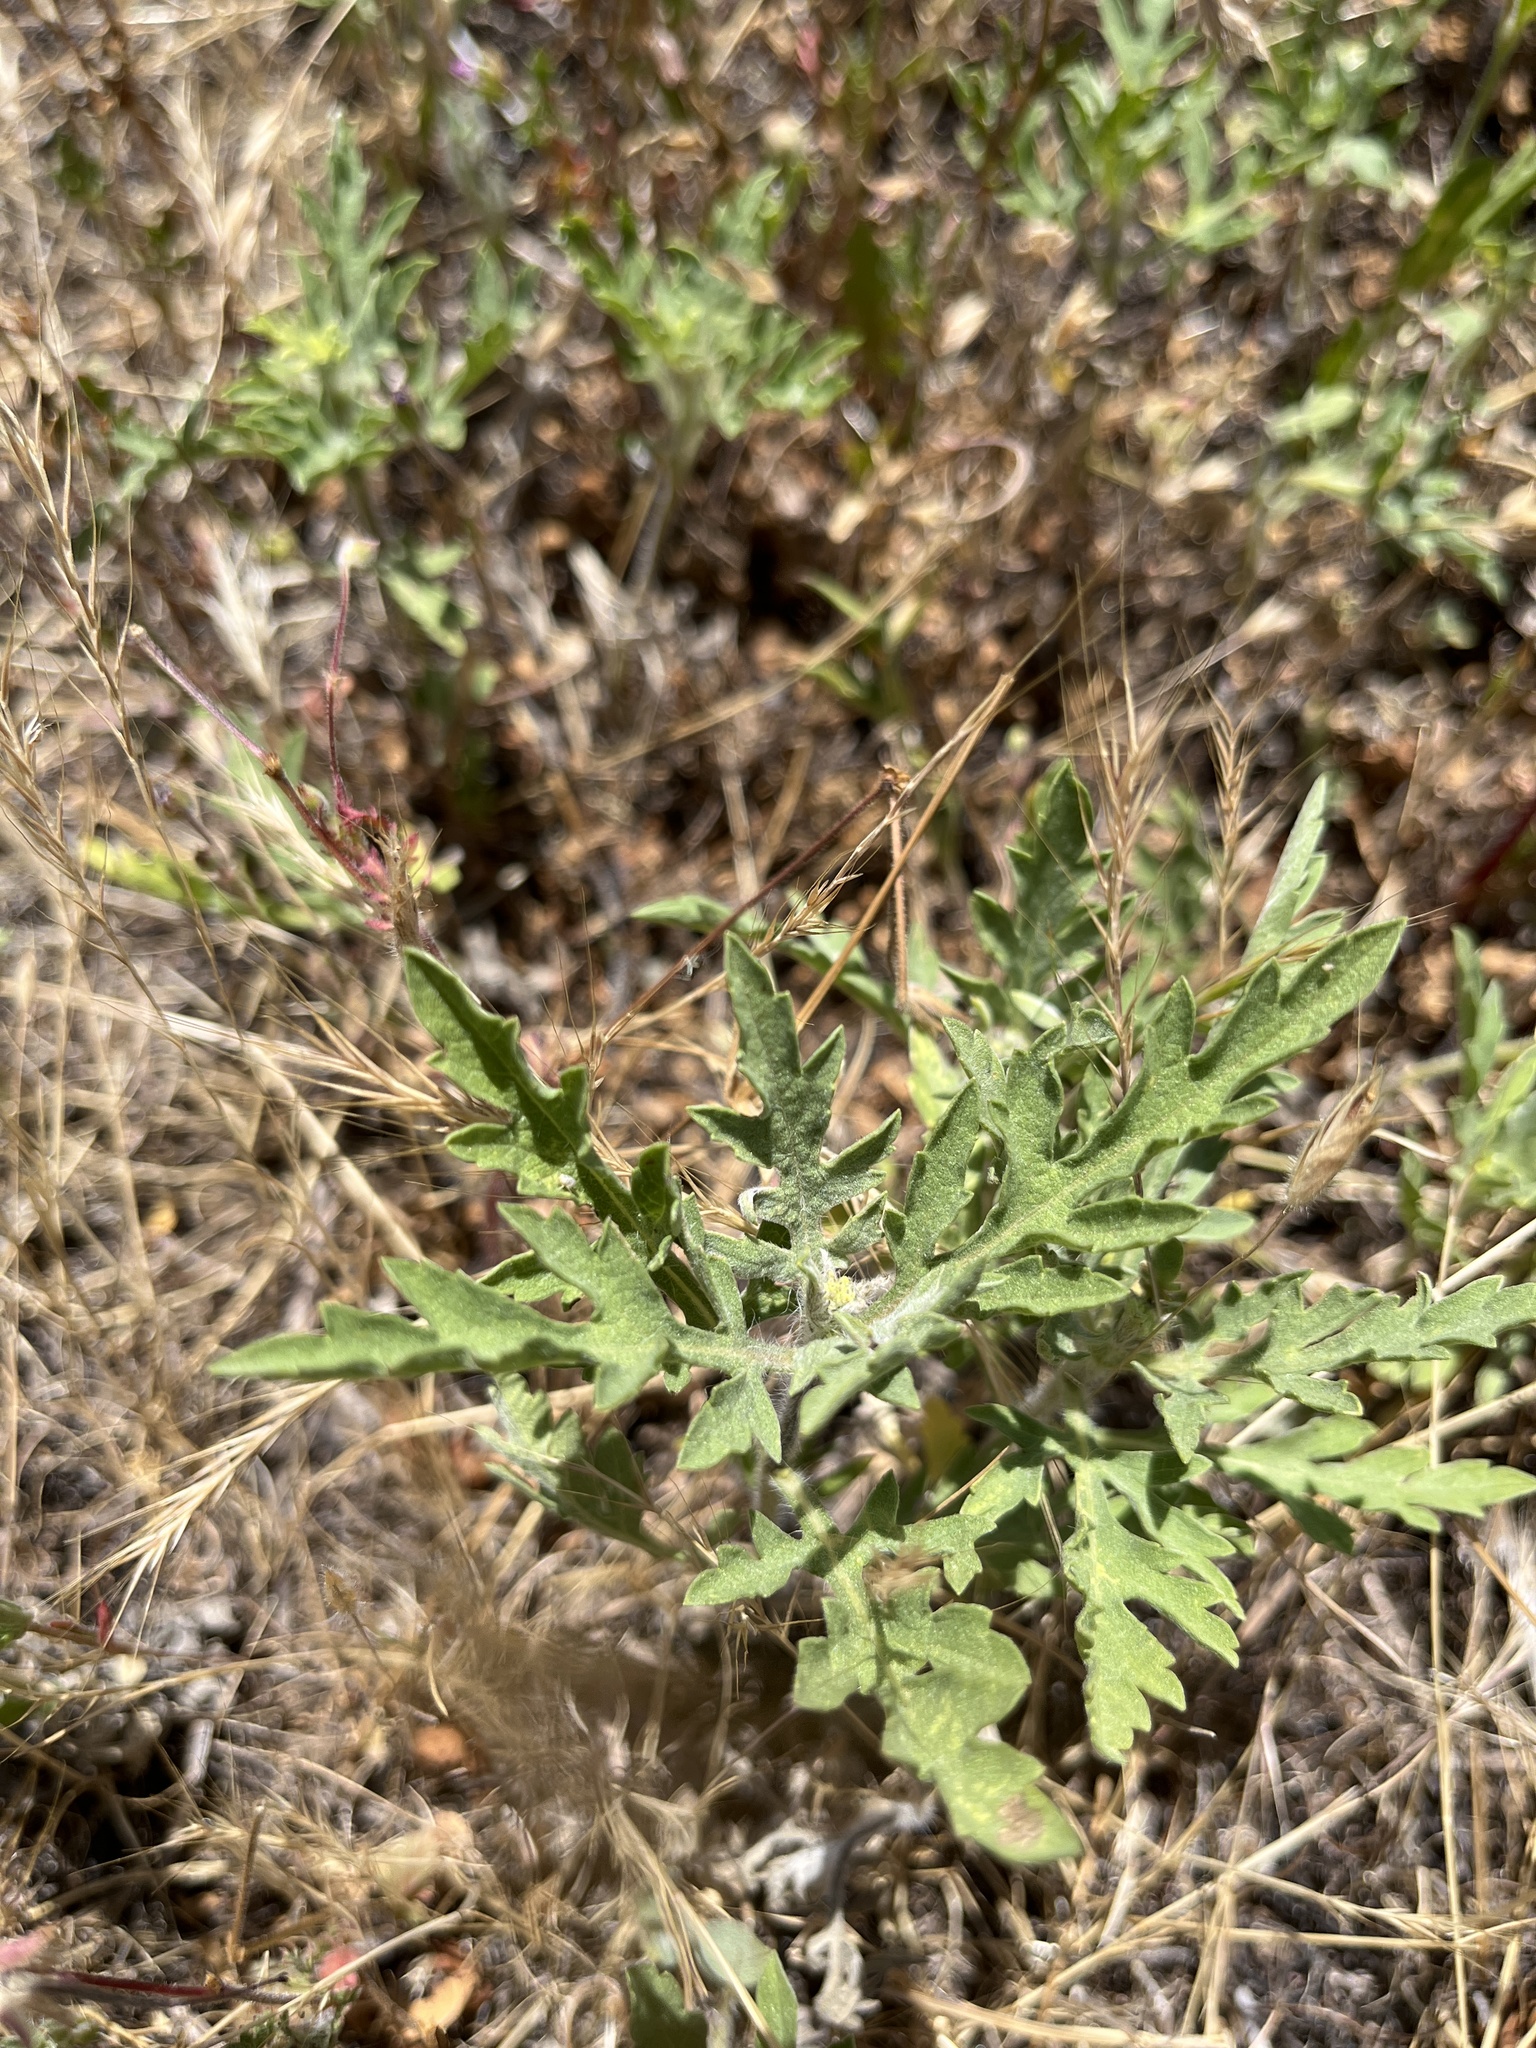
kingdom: Plantae
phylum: Tracheophyta
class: Magnoliopsida
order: Asterales
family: Asteraceae
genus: Ambrosia
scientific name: Ambrosia psilostachya
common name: Perennial ragweed
